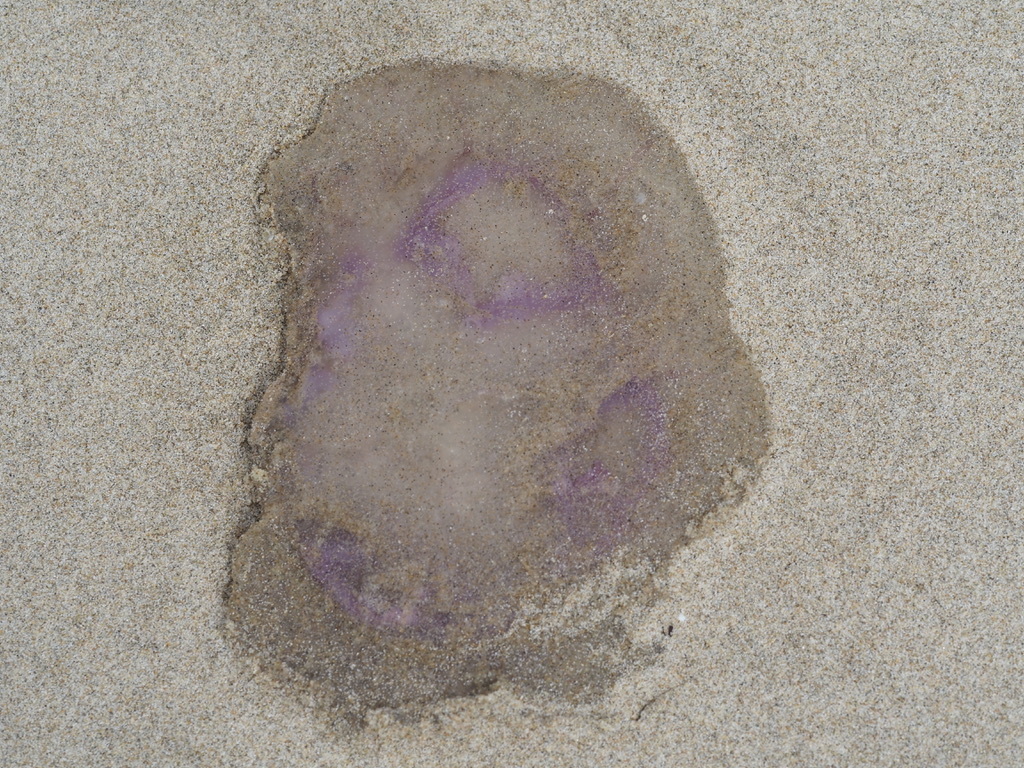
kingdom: Animalia
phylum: Cnidaria
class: Scyphozoa
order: Semaeostomeae
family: Ulmaridae
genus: Aurelia
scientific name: Aurelia aurita
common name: Moon jellyfish
